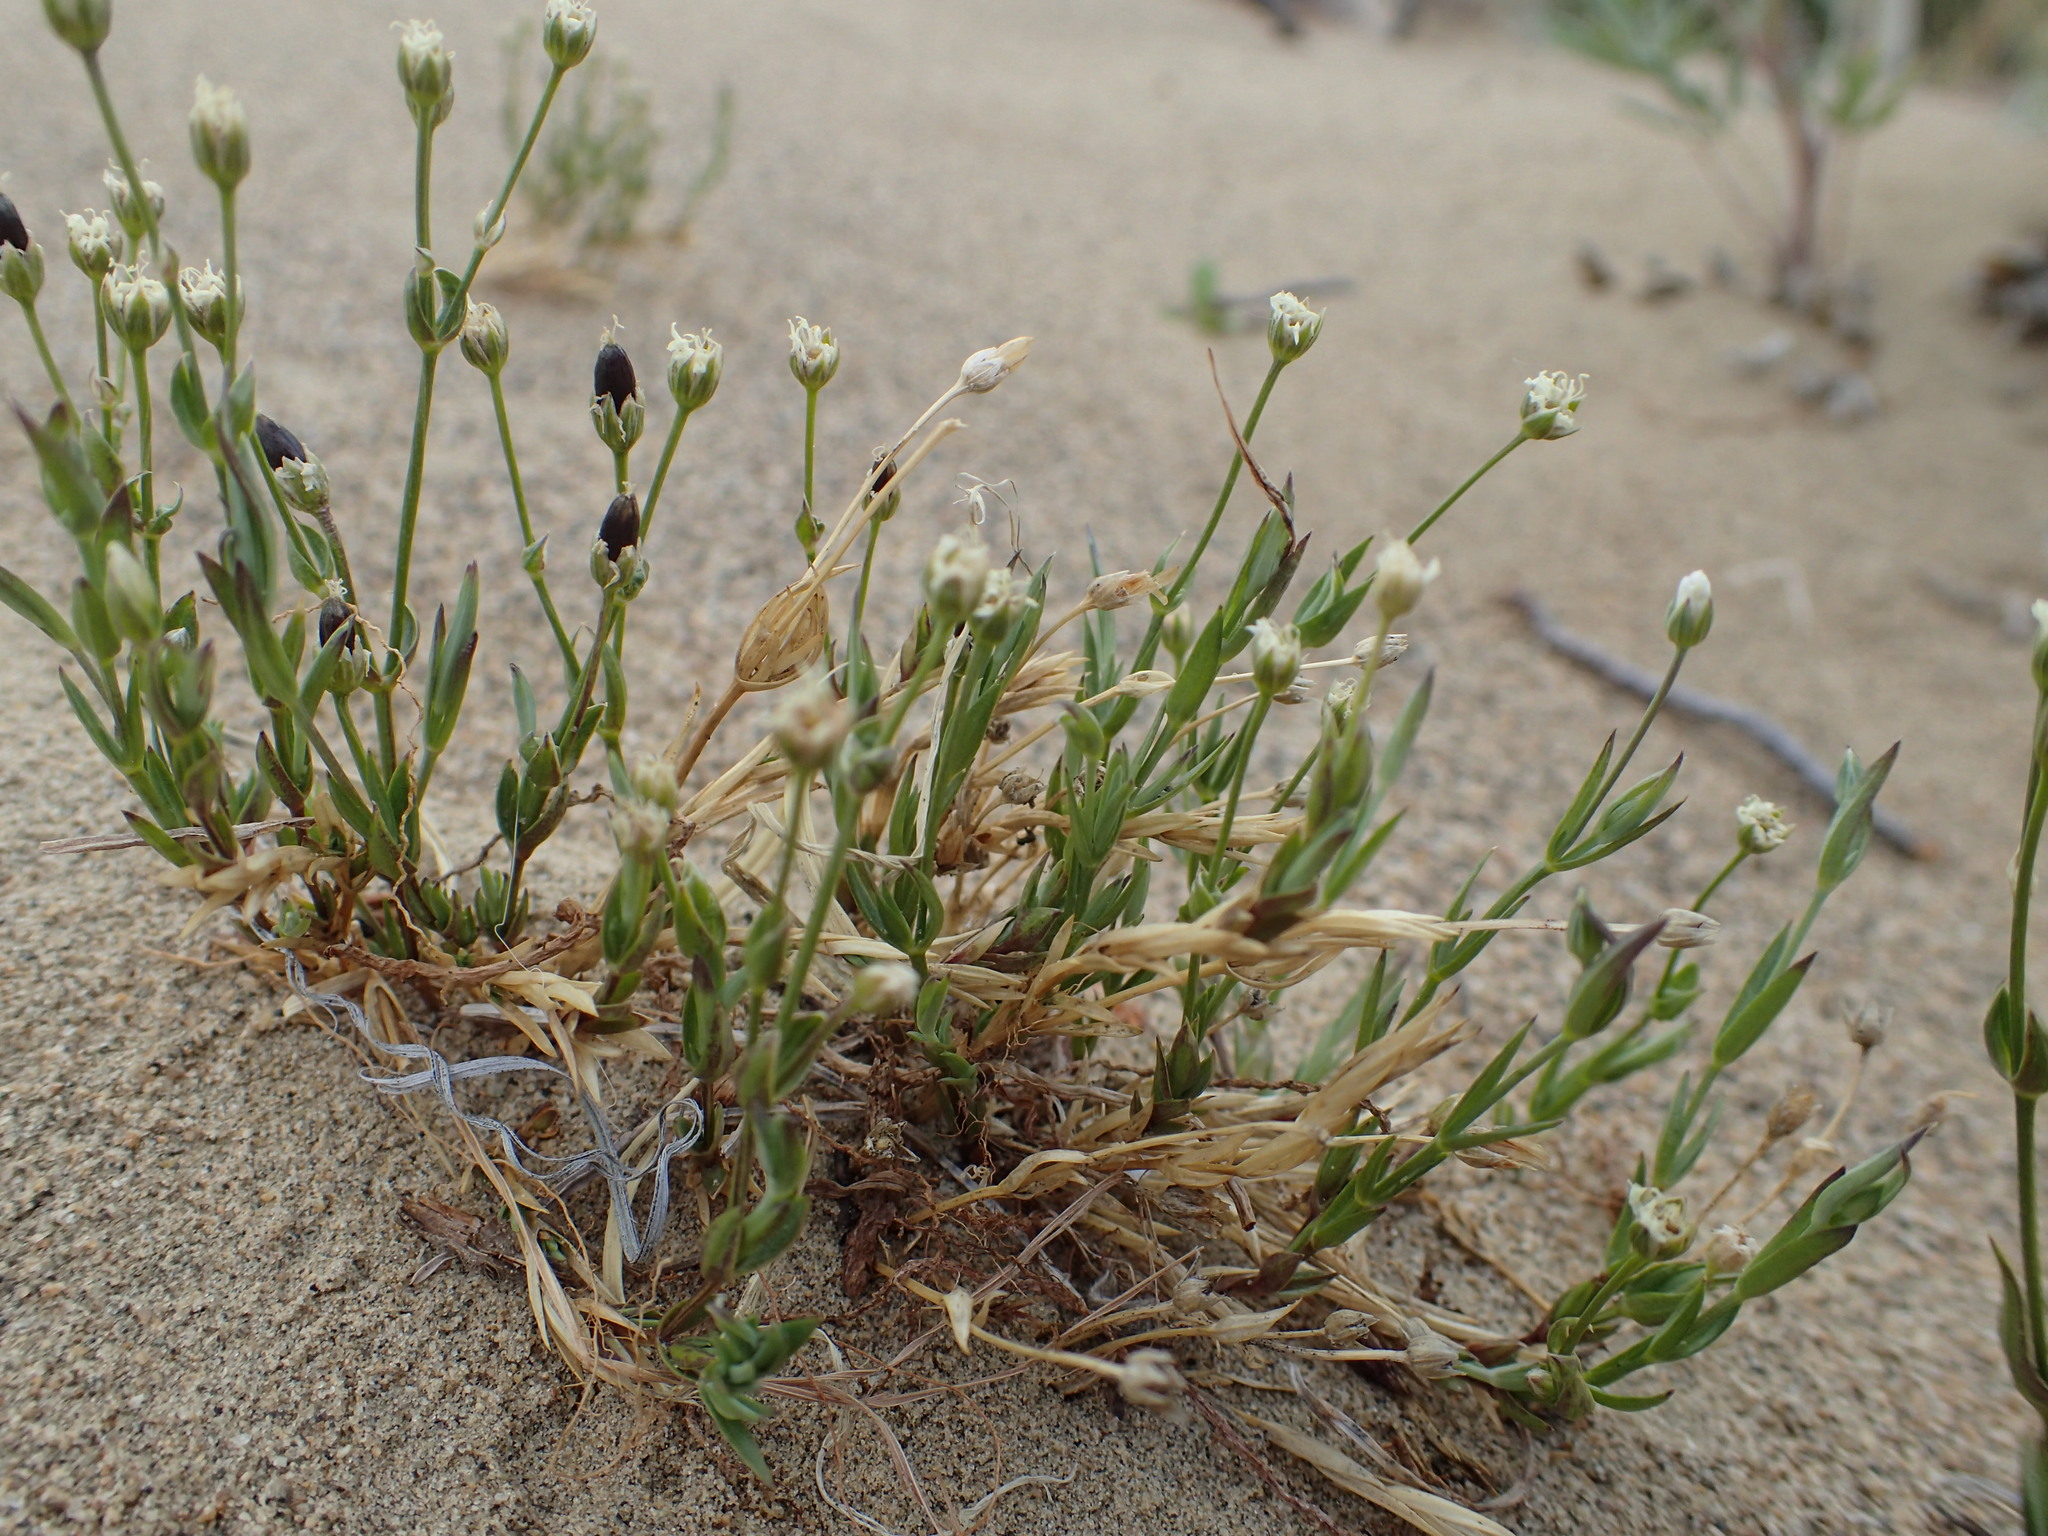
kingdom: Plantae
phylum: Tracheophyta
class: Magnoliopsida
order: Caryophyllales
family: Caryophyllaceae
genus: Stellaria
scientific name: Stellaria longipes
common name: Goldie's starwort
